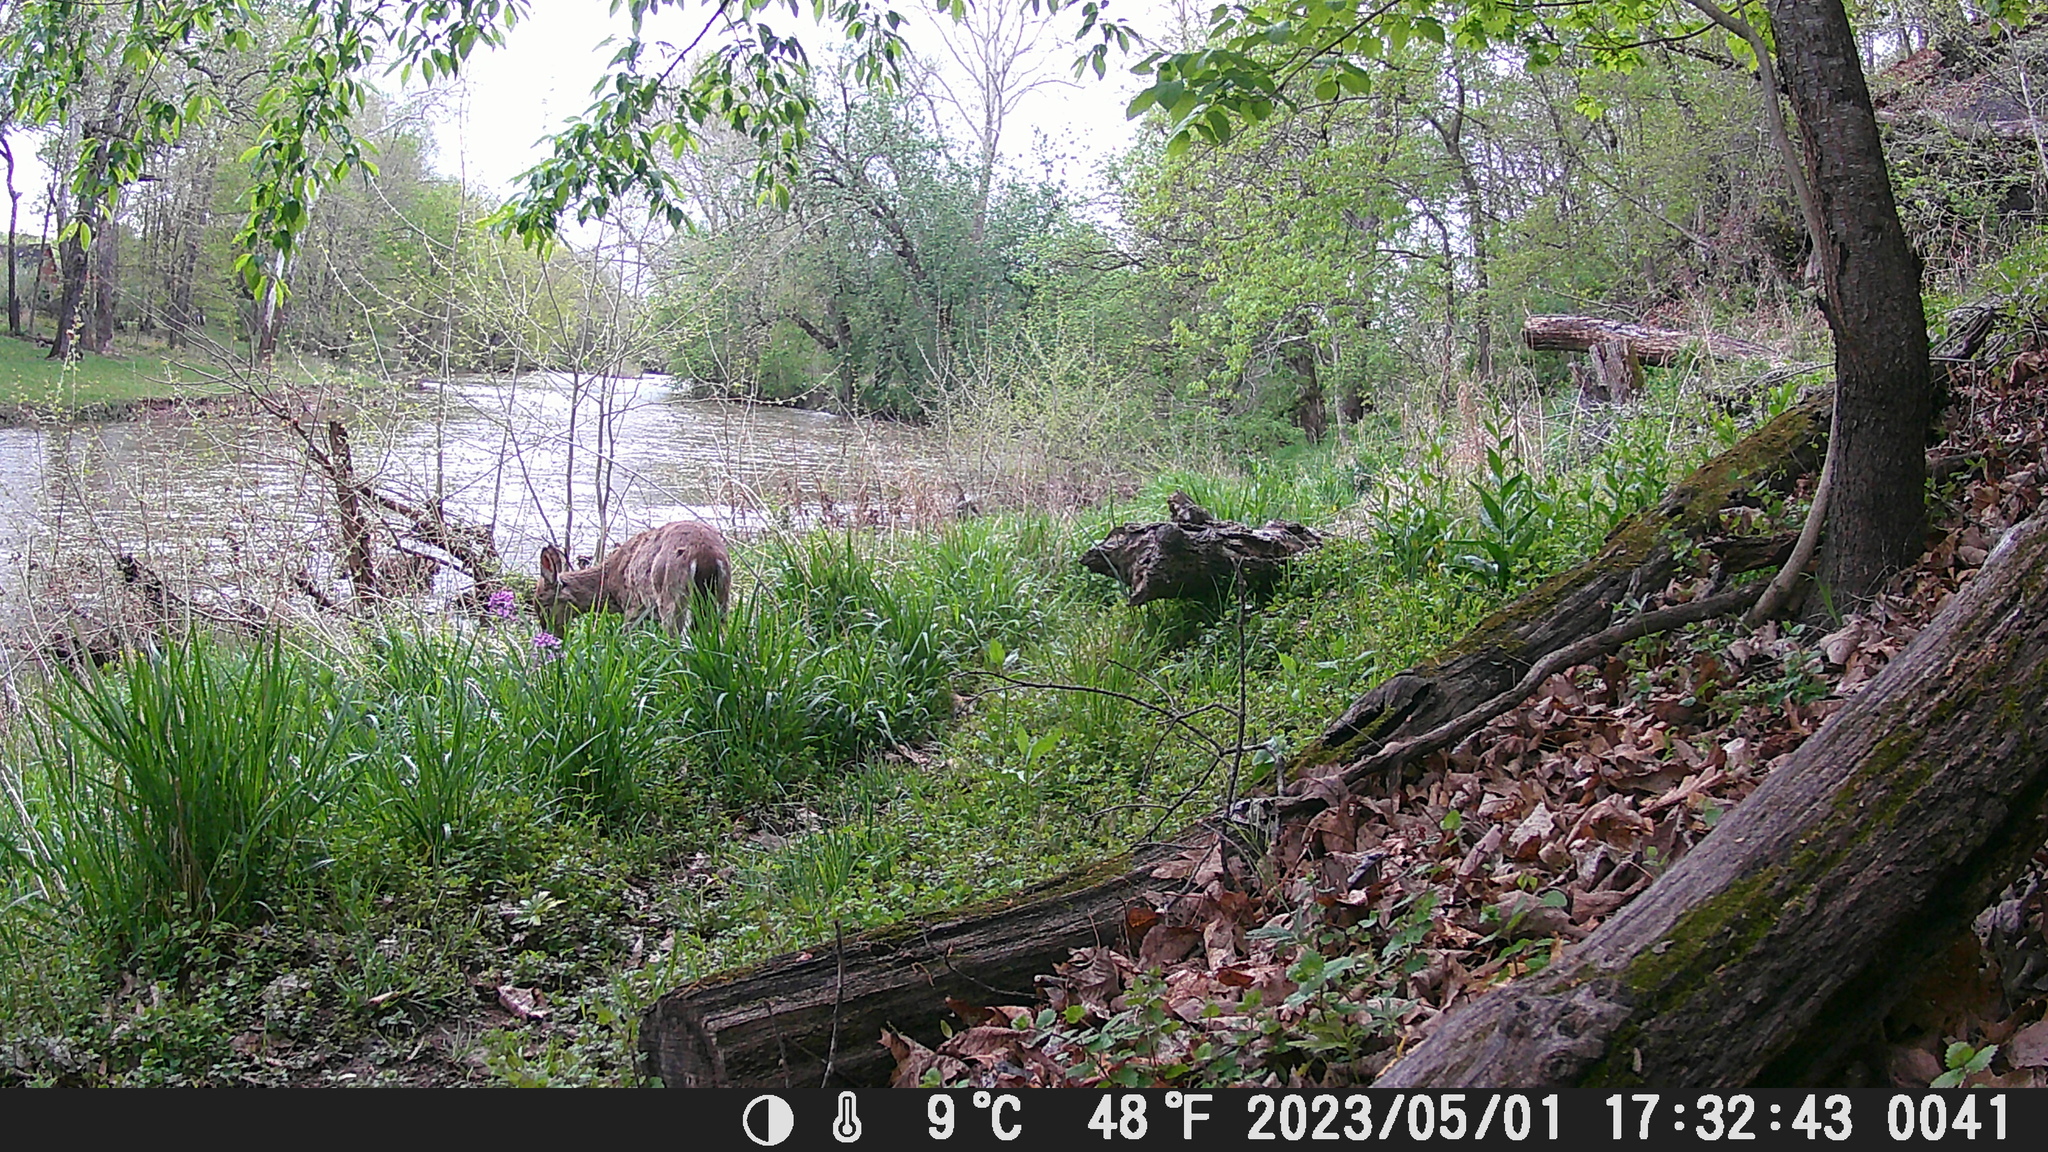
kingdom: Animalia
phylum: Chordata
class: Mammalia
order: Artiodactyla
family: Cervidae
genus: Odocoileus
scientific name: Odocoileus virginianus
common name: White-tailed deer
